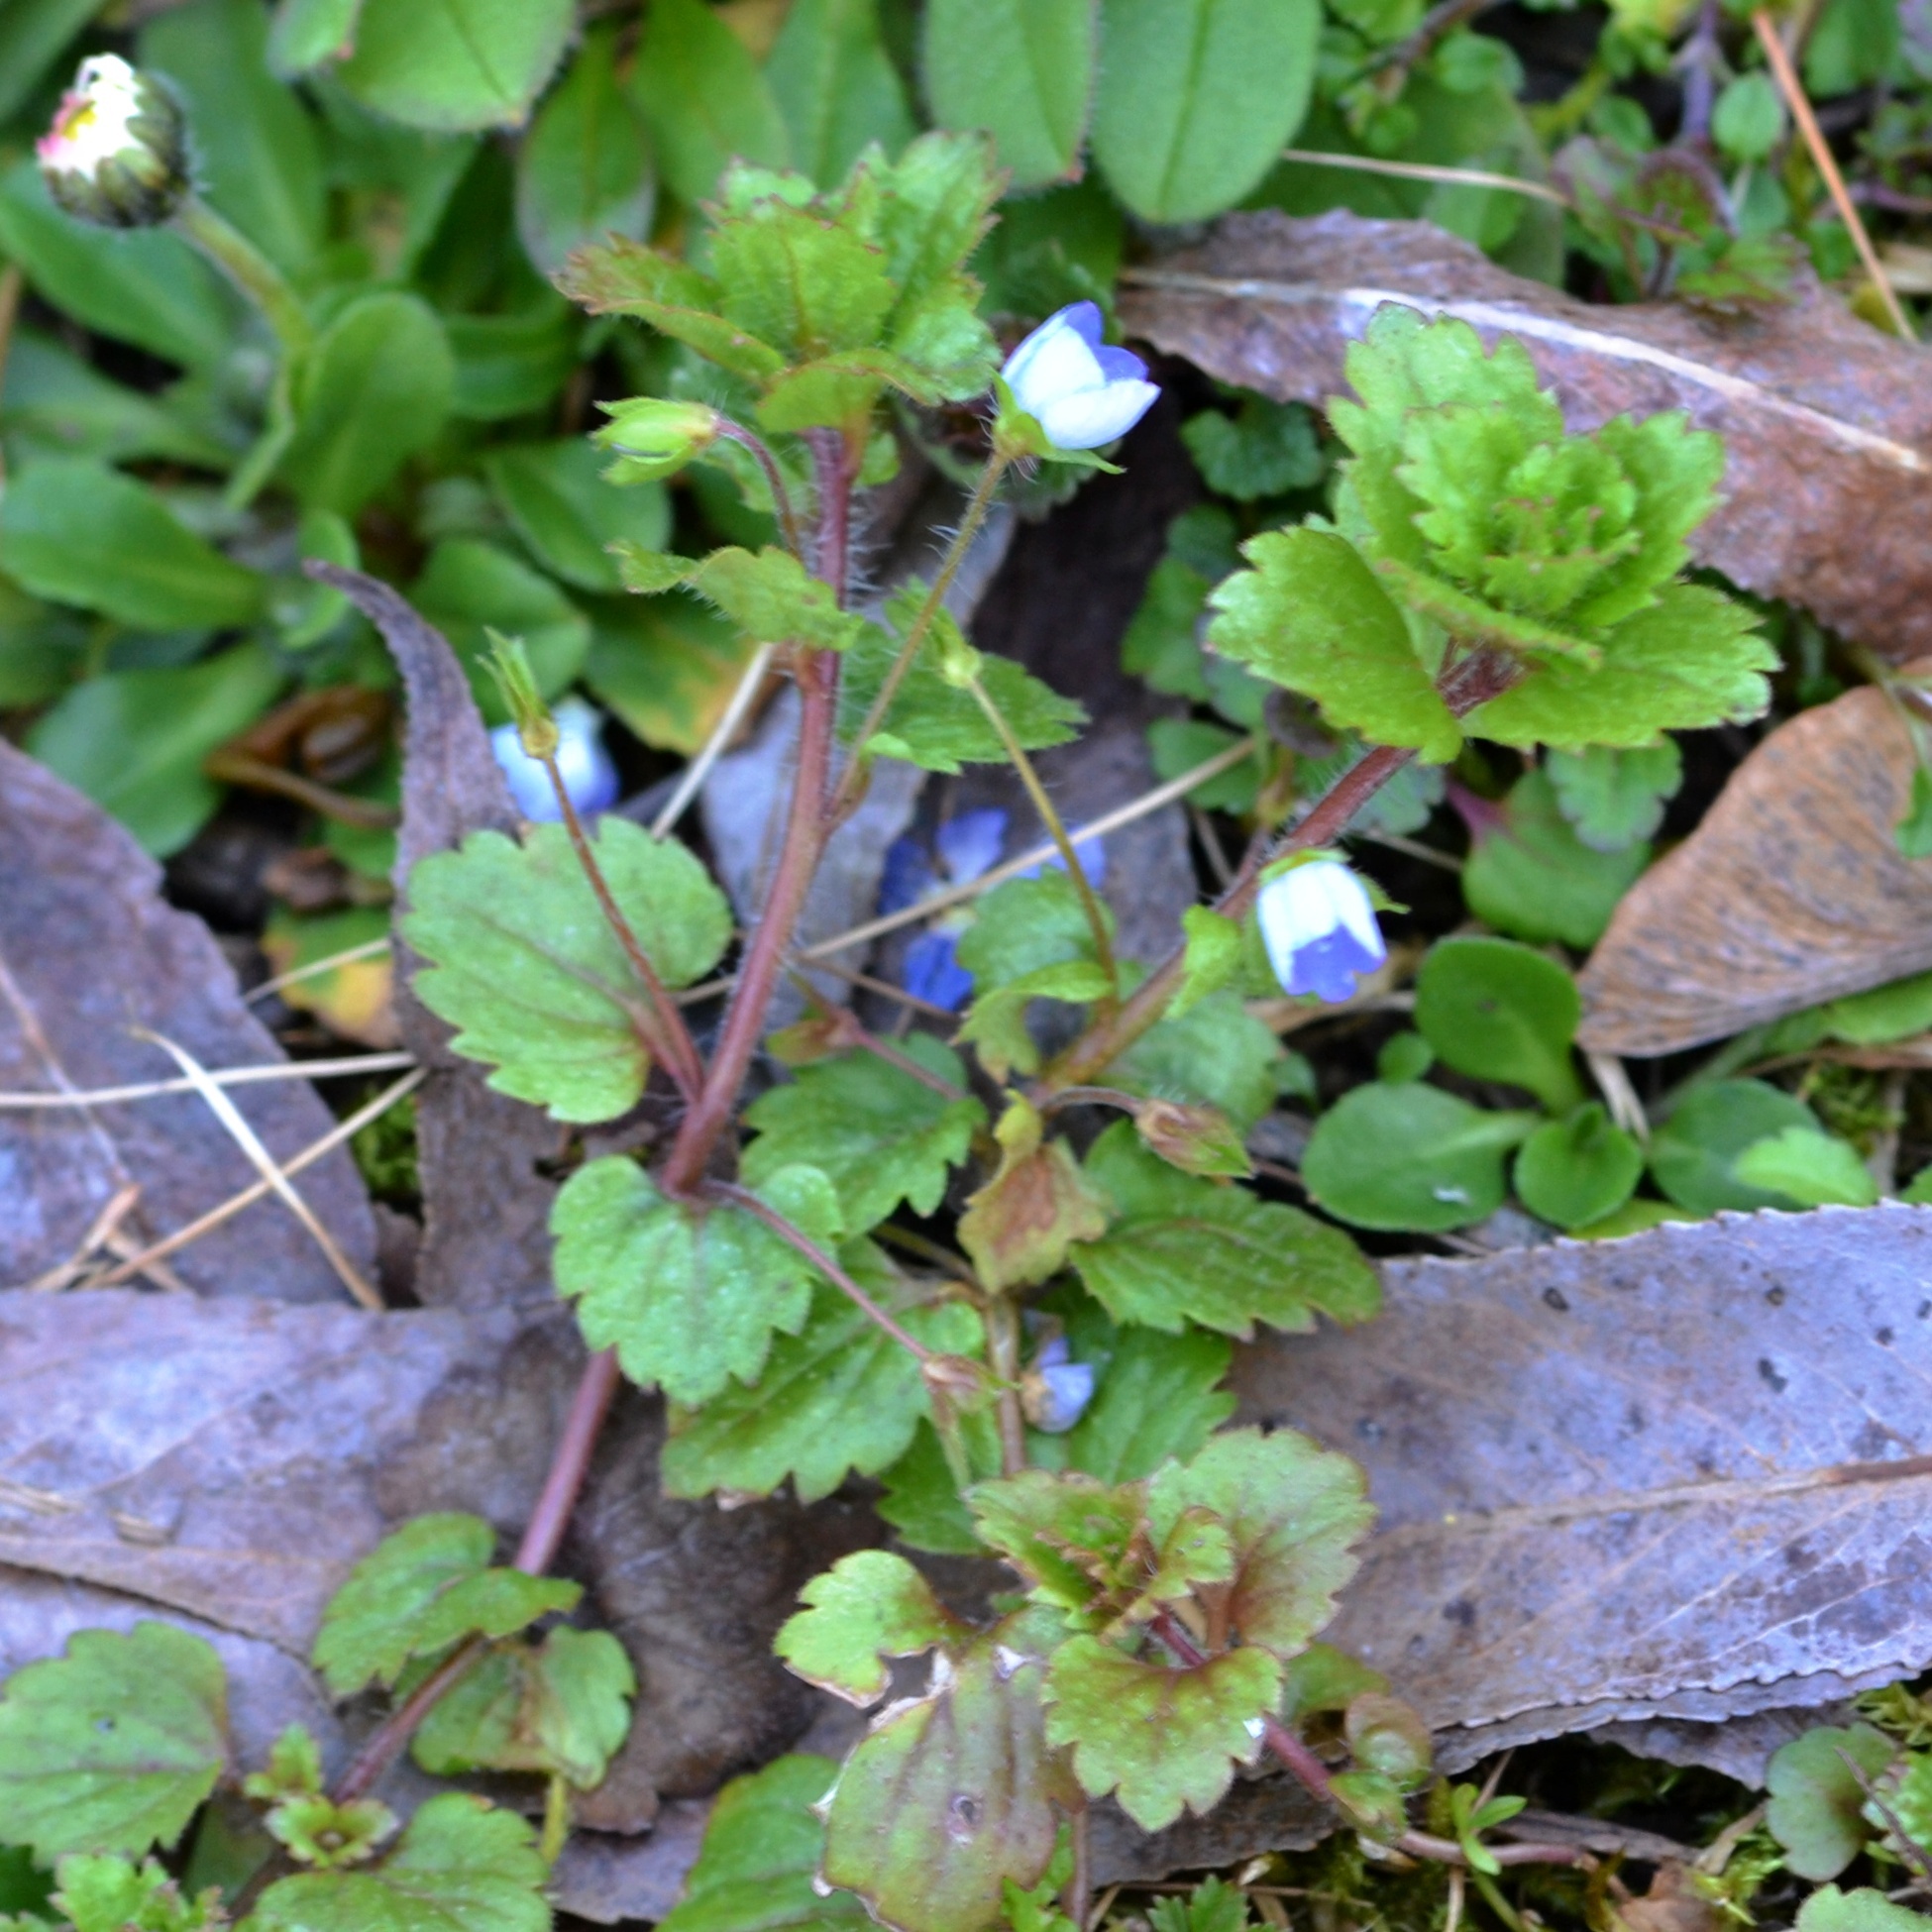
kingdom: Plantae
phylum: Tracheophyta
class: Magnoliopsida
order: Lamiales
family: Plantaginaceae
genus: Veronica
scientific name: Veronica persica
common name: Common field-speedwell
